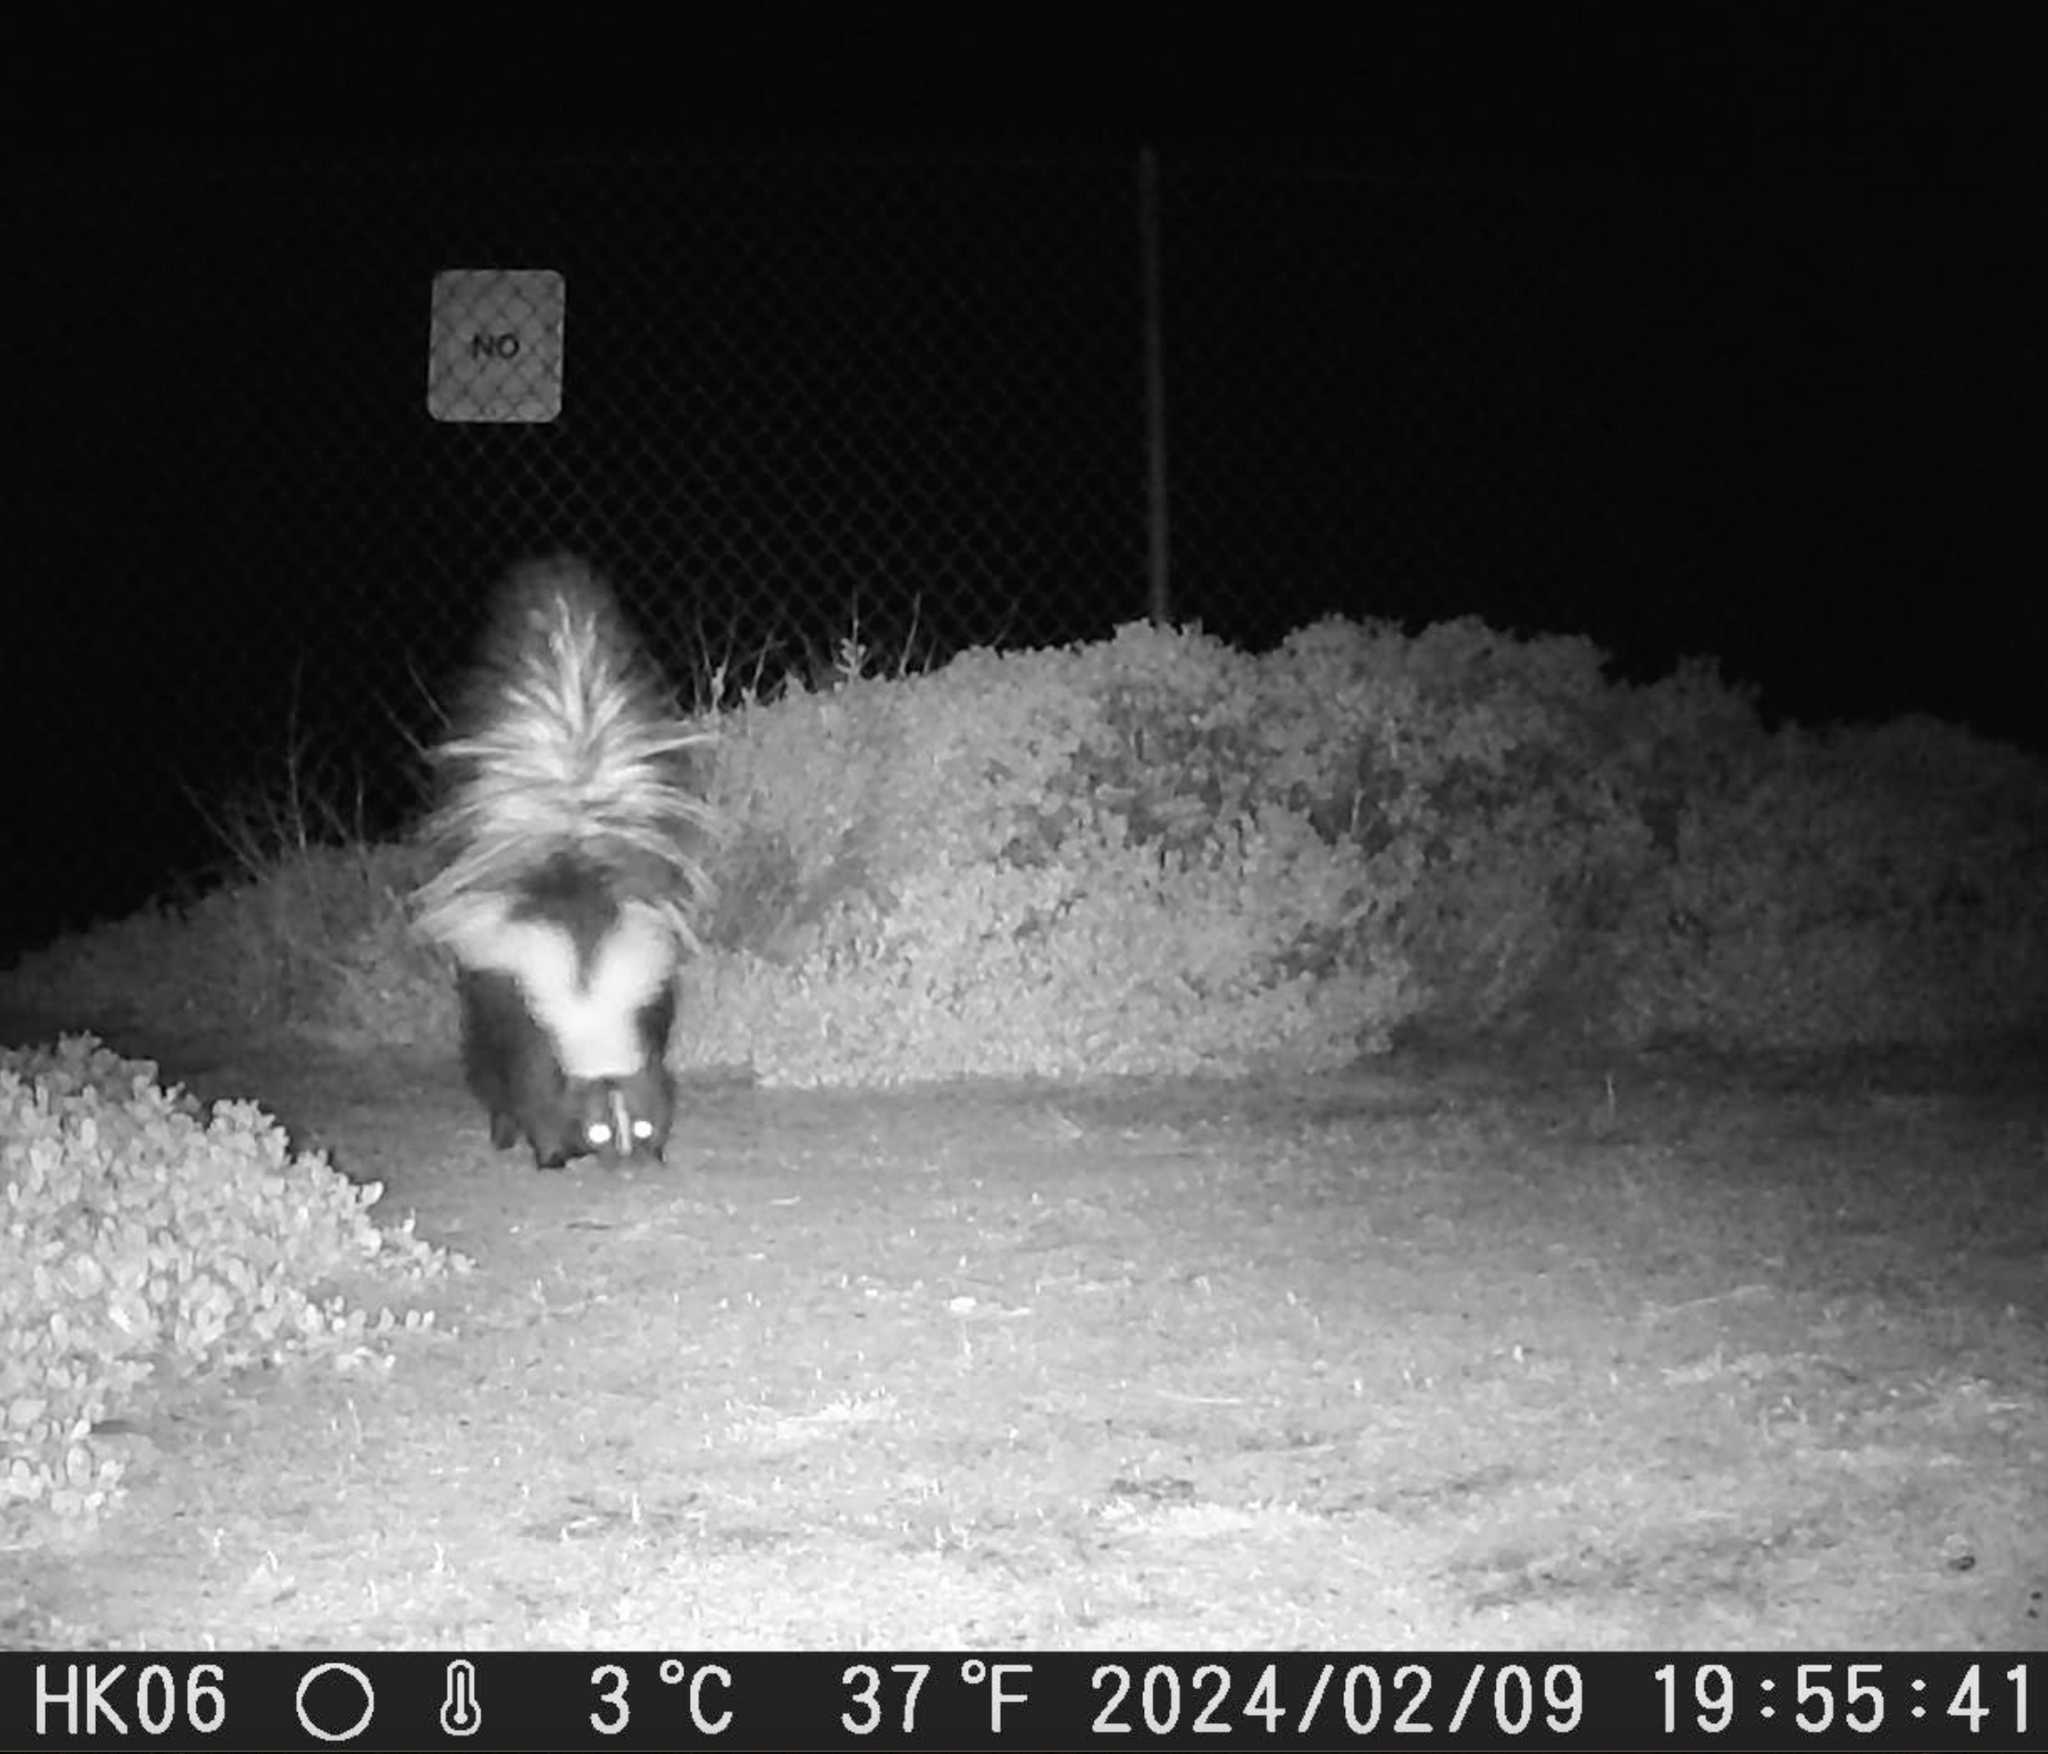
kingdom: Animalia
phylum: Chordata
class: Mammalia
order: Carnivora
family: Mephitidae
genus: Mephitis
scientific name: Mephitis mephitis
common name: Striped skunk
